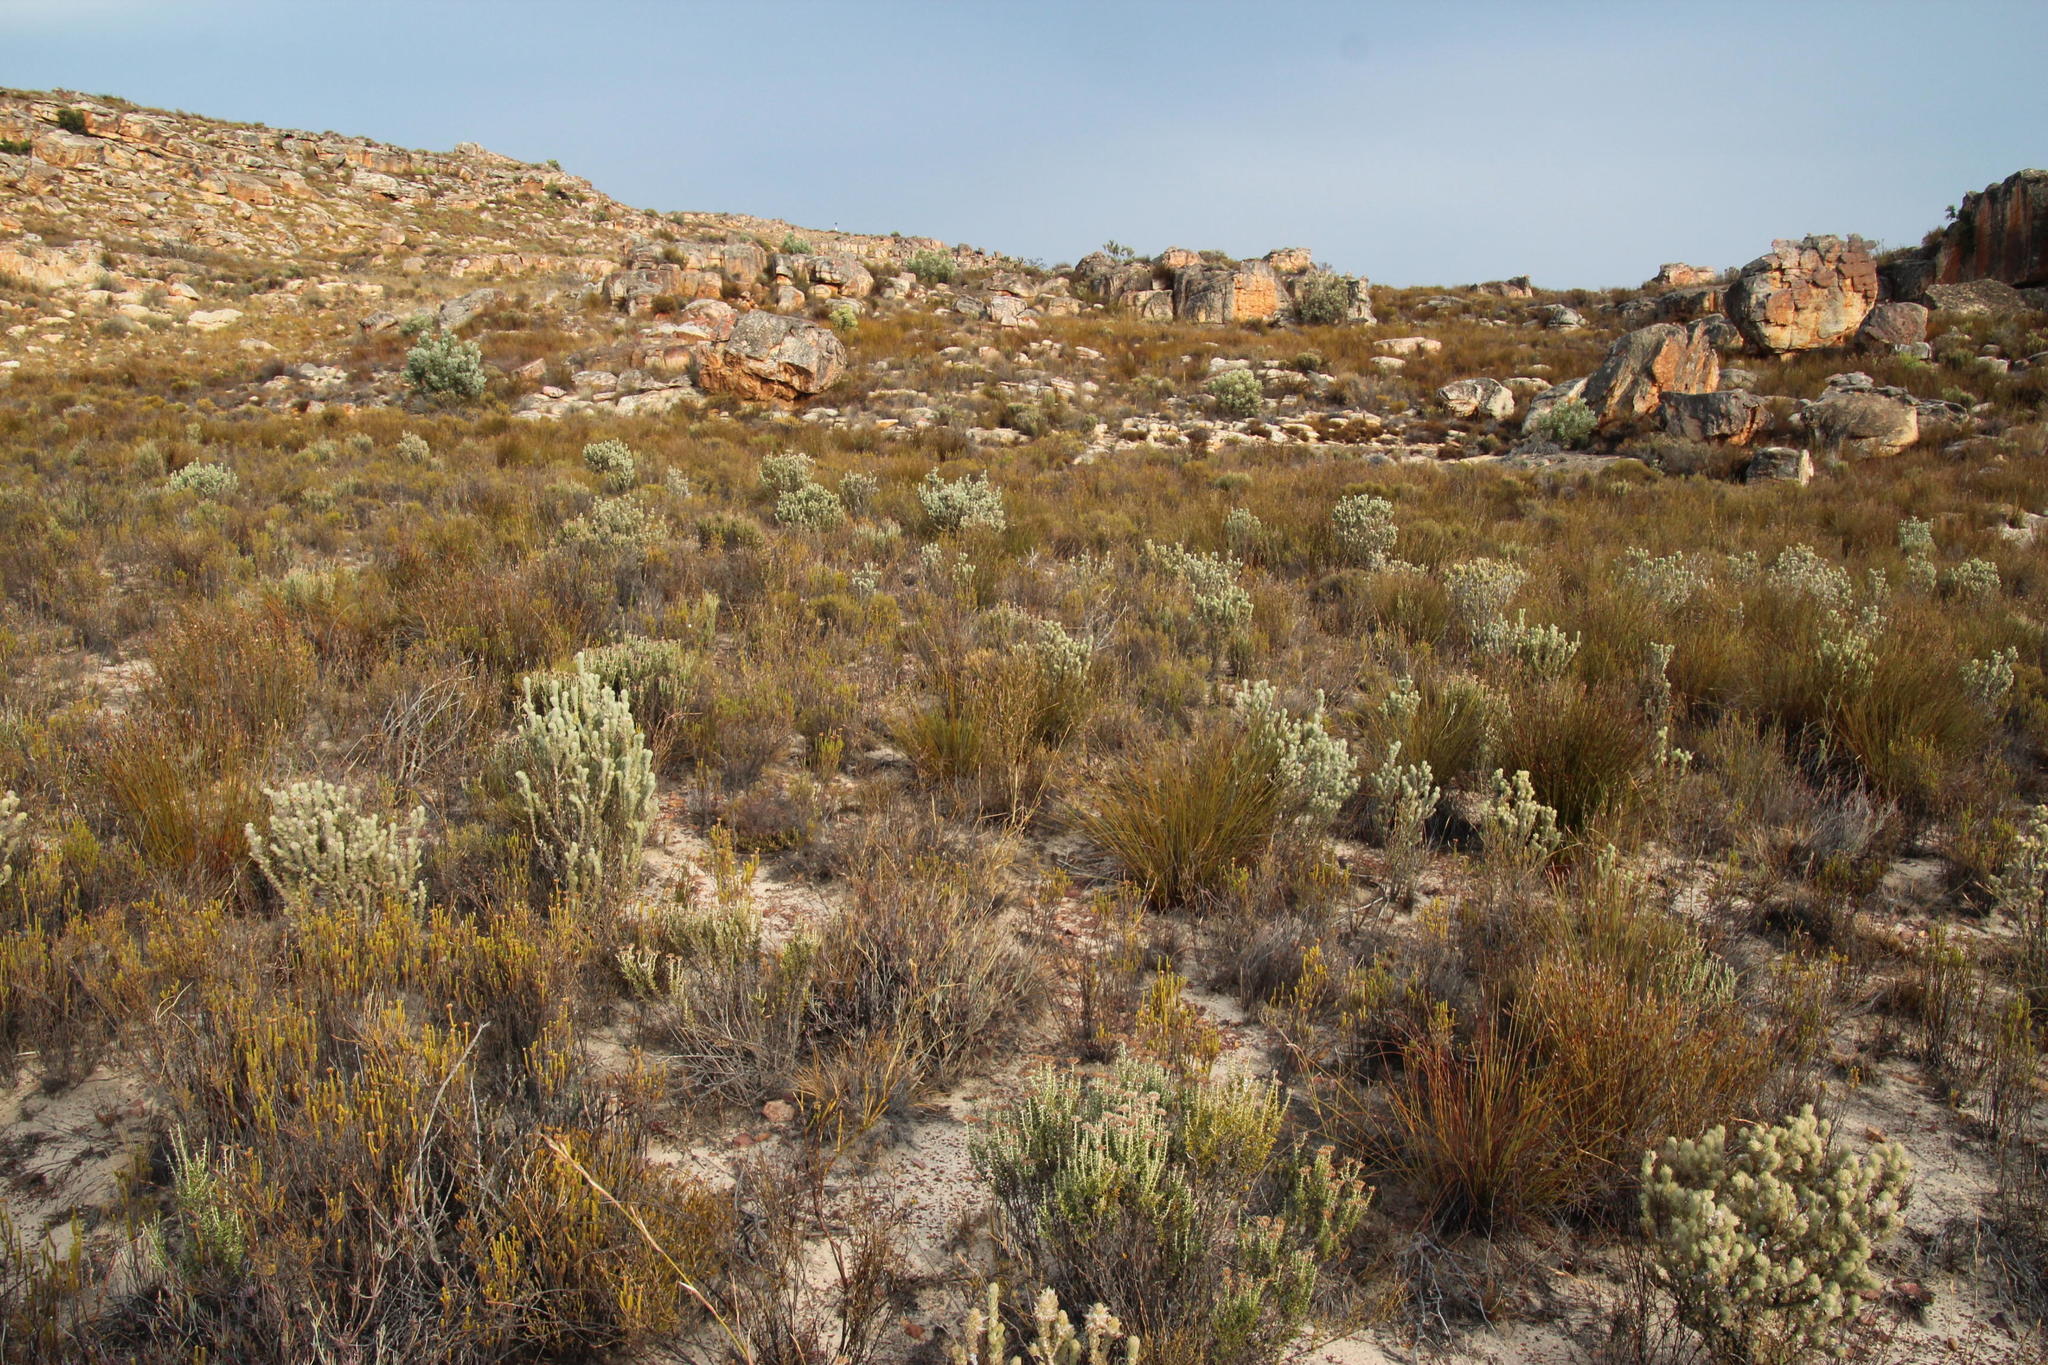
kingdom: Plantae
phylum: Tracheophyta
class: Magnoliopsida
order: Fabales
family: Fabaceae
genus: Aspalathus
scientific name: Aspalathus shawii
